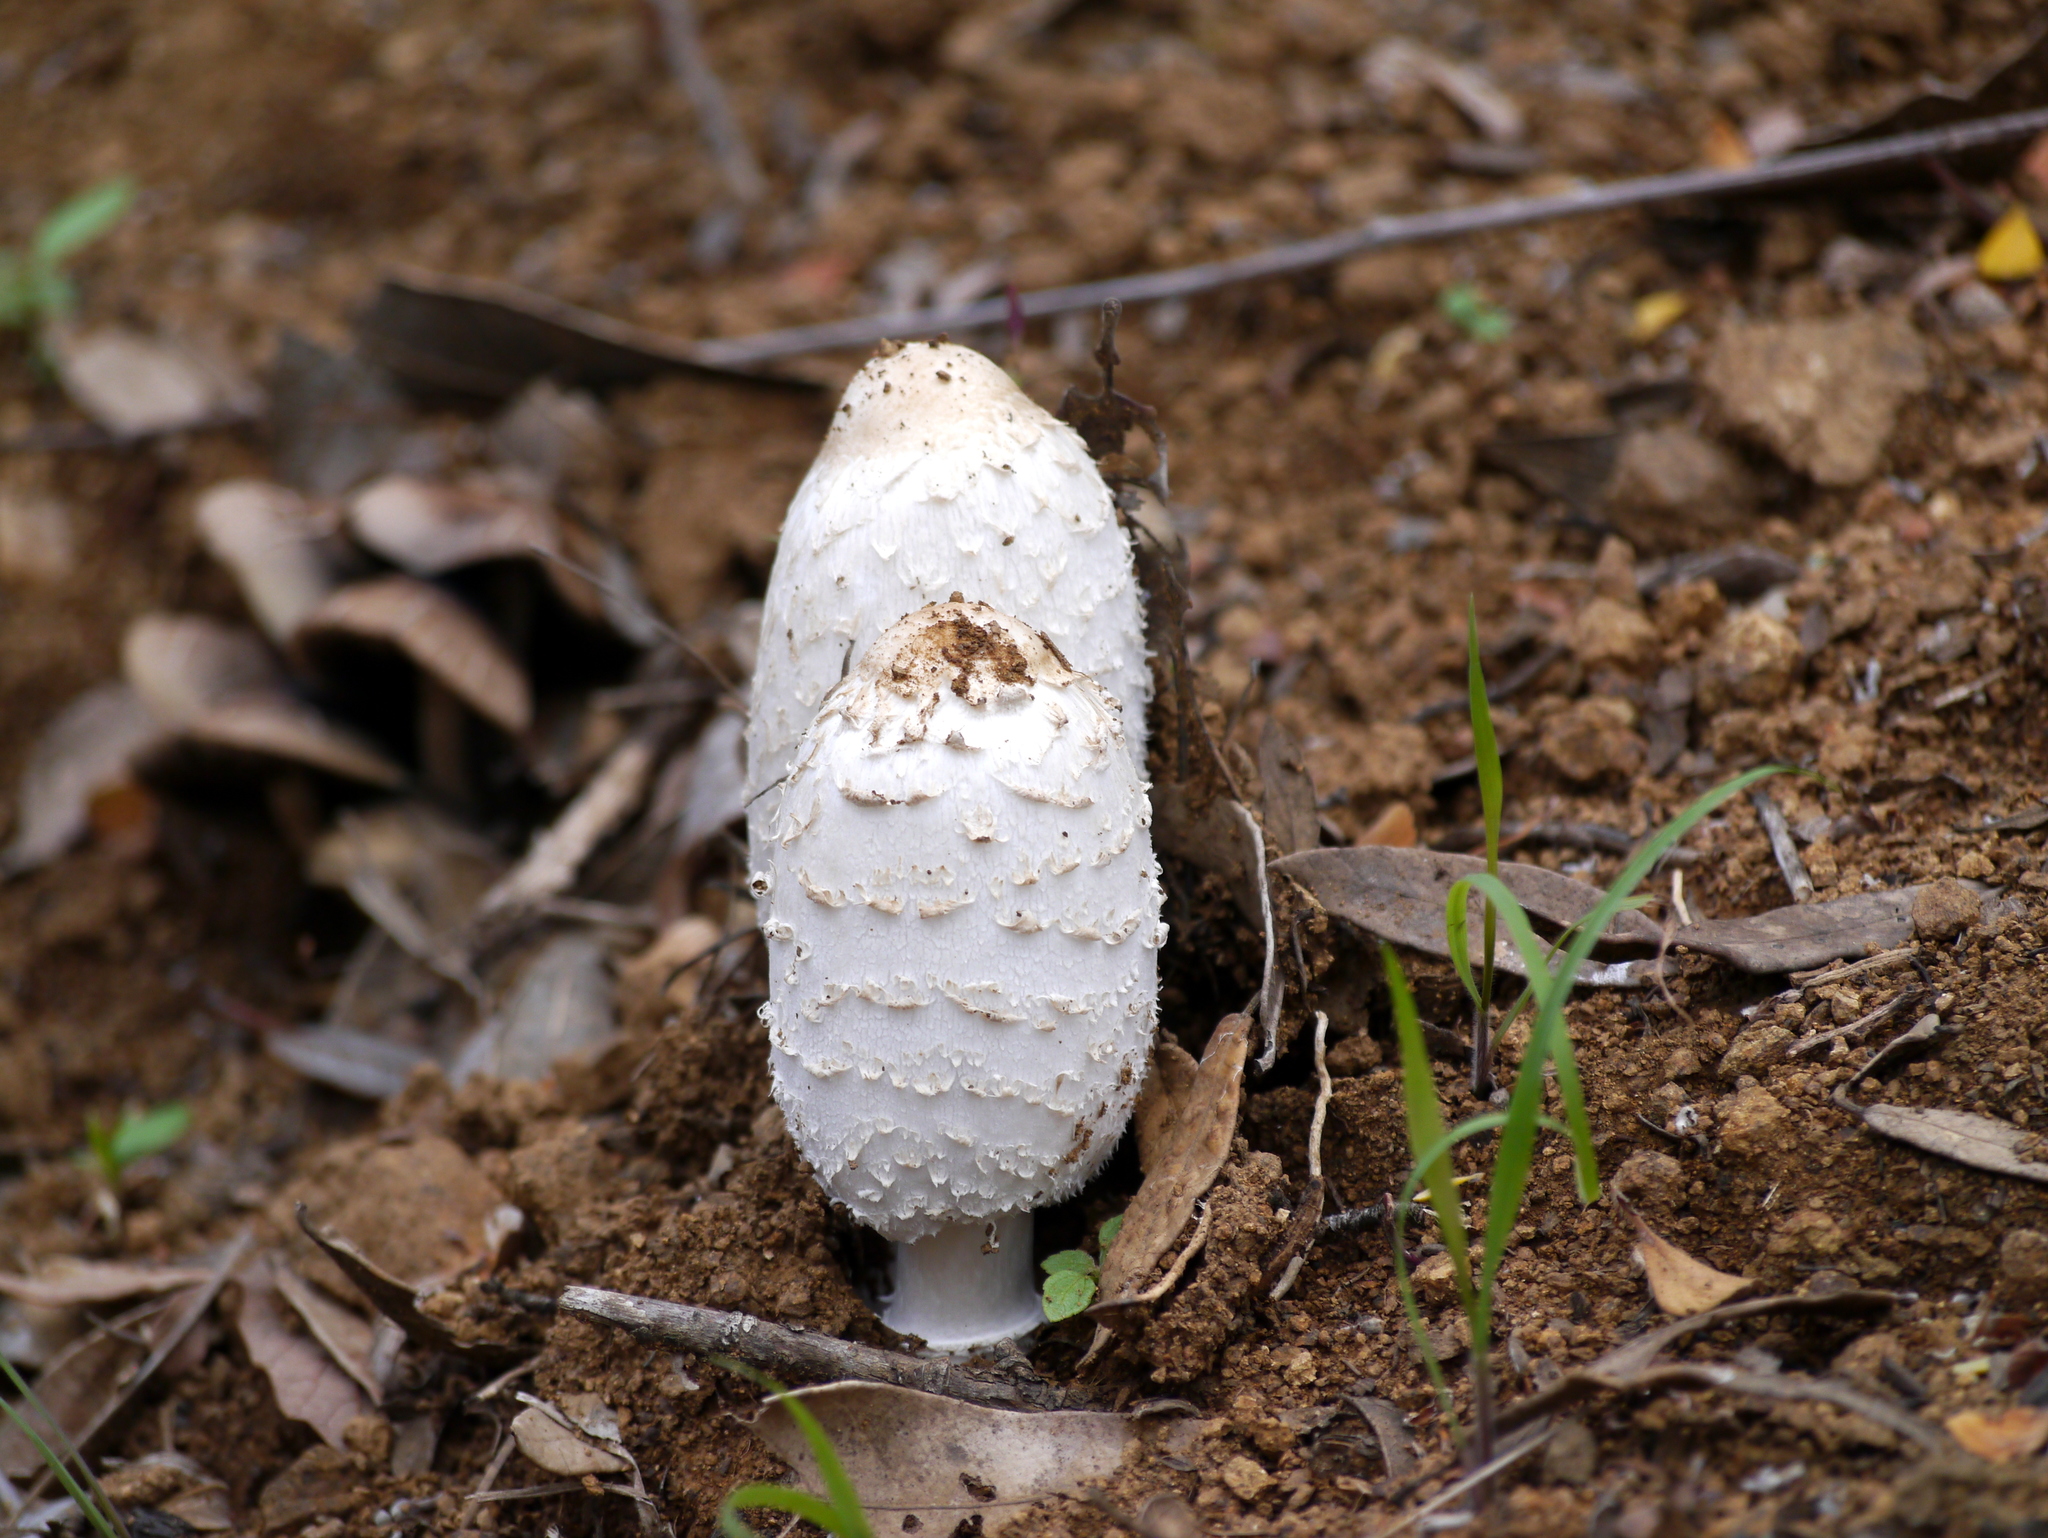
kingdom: Fungi
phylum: Basidiomycota
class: Agaricomycetes
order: Agaricales
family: Agaricaceae
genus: Coprinus
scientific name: Coprinus comatus
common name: Lawyer's wig
